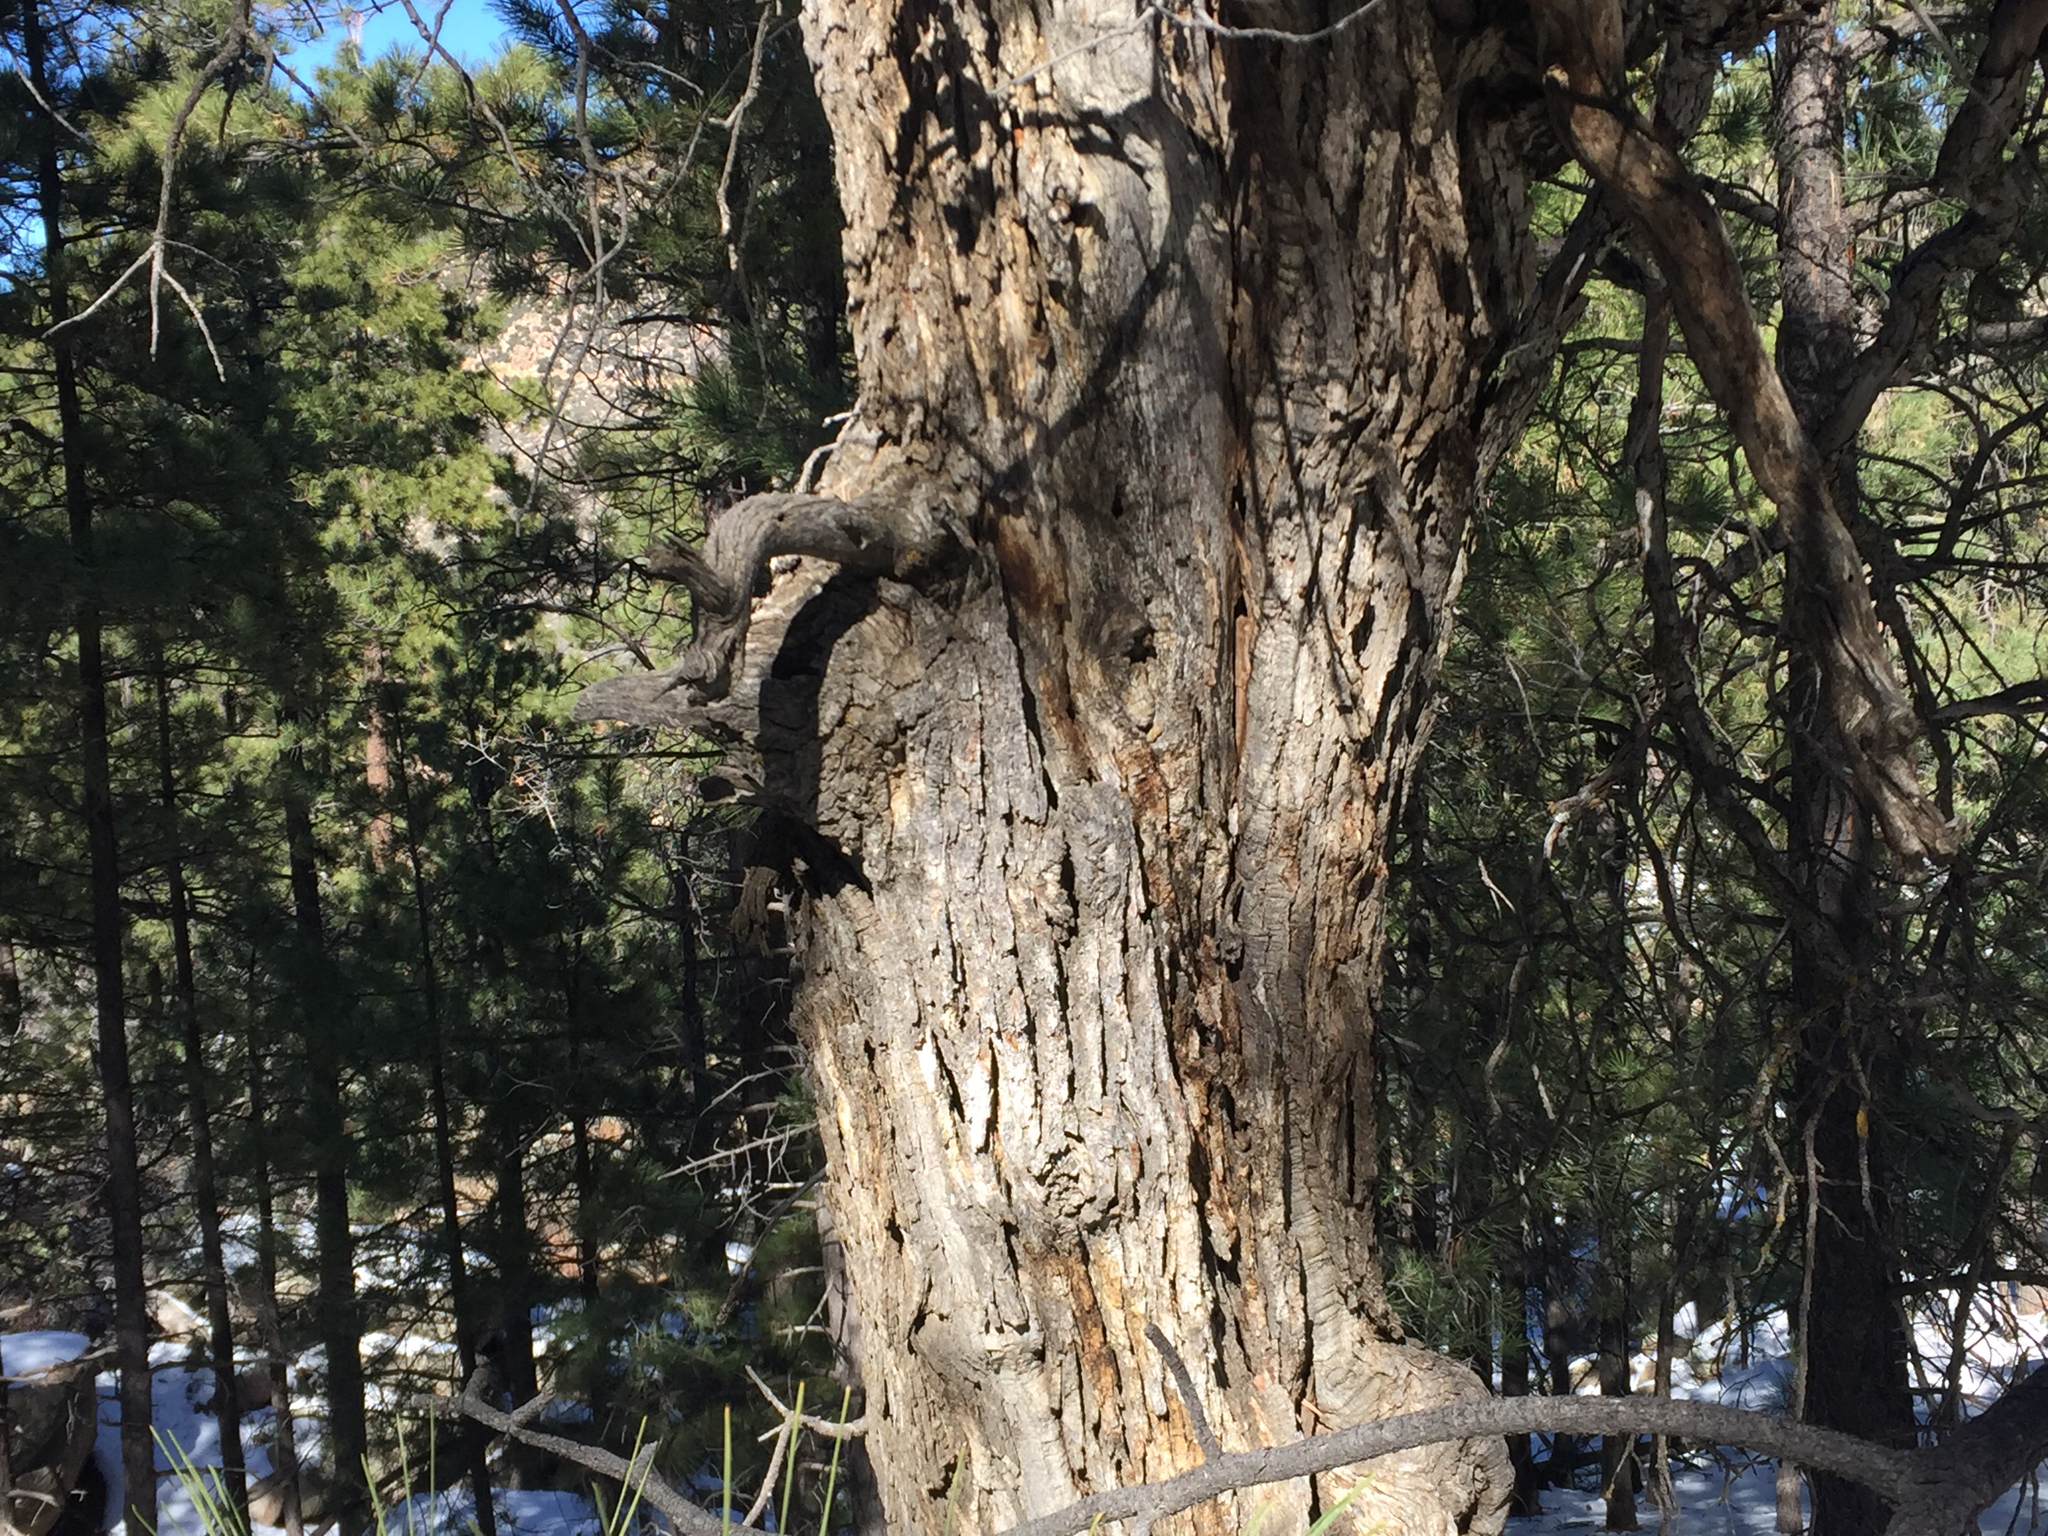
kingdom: Plantae
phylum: Tracheophyta
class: Magnoliopsida
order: Fagales
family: Fagaceae
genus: Quercus
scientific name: Quercus gambelii
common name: Gambel oak
